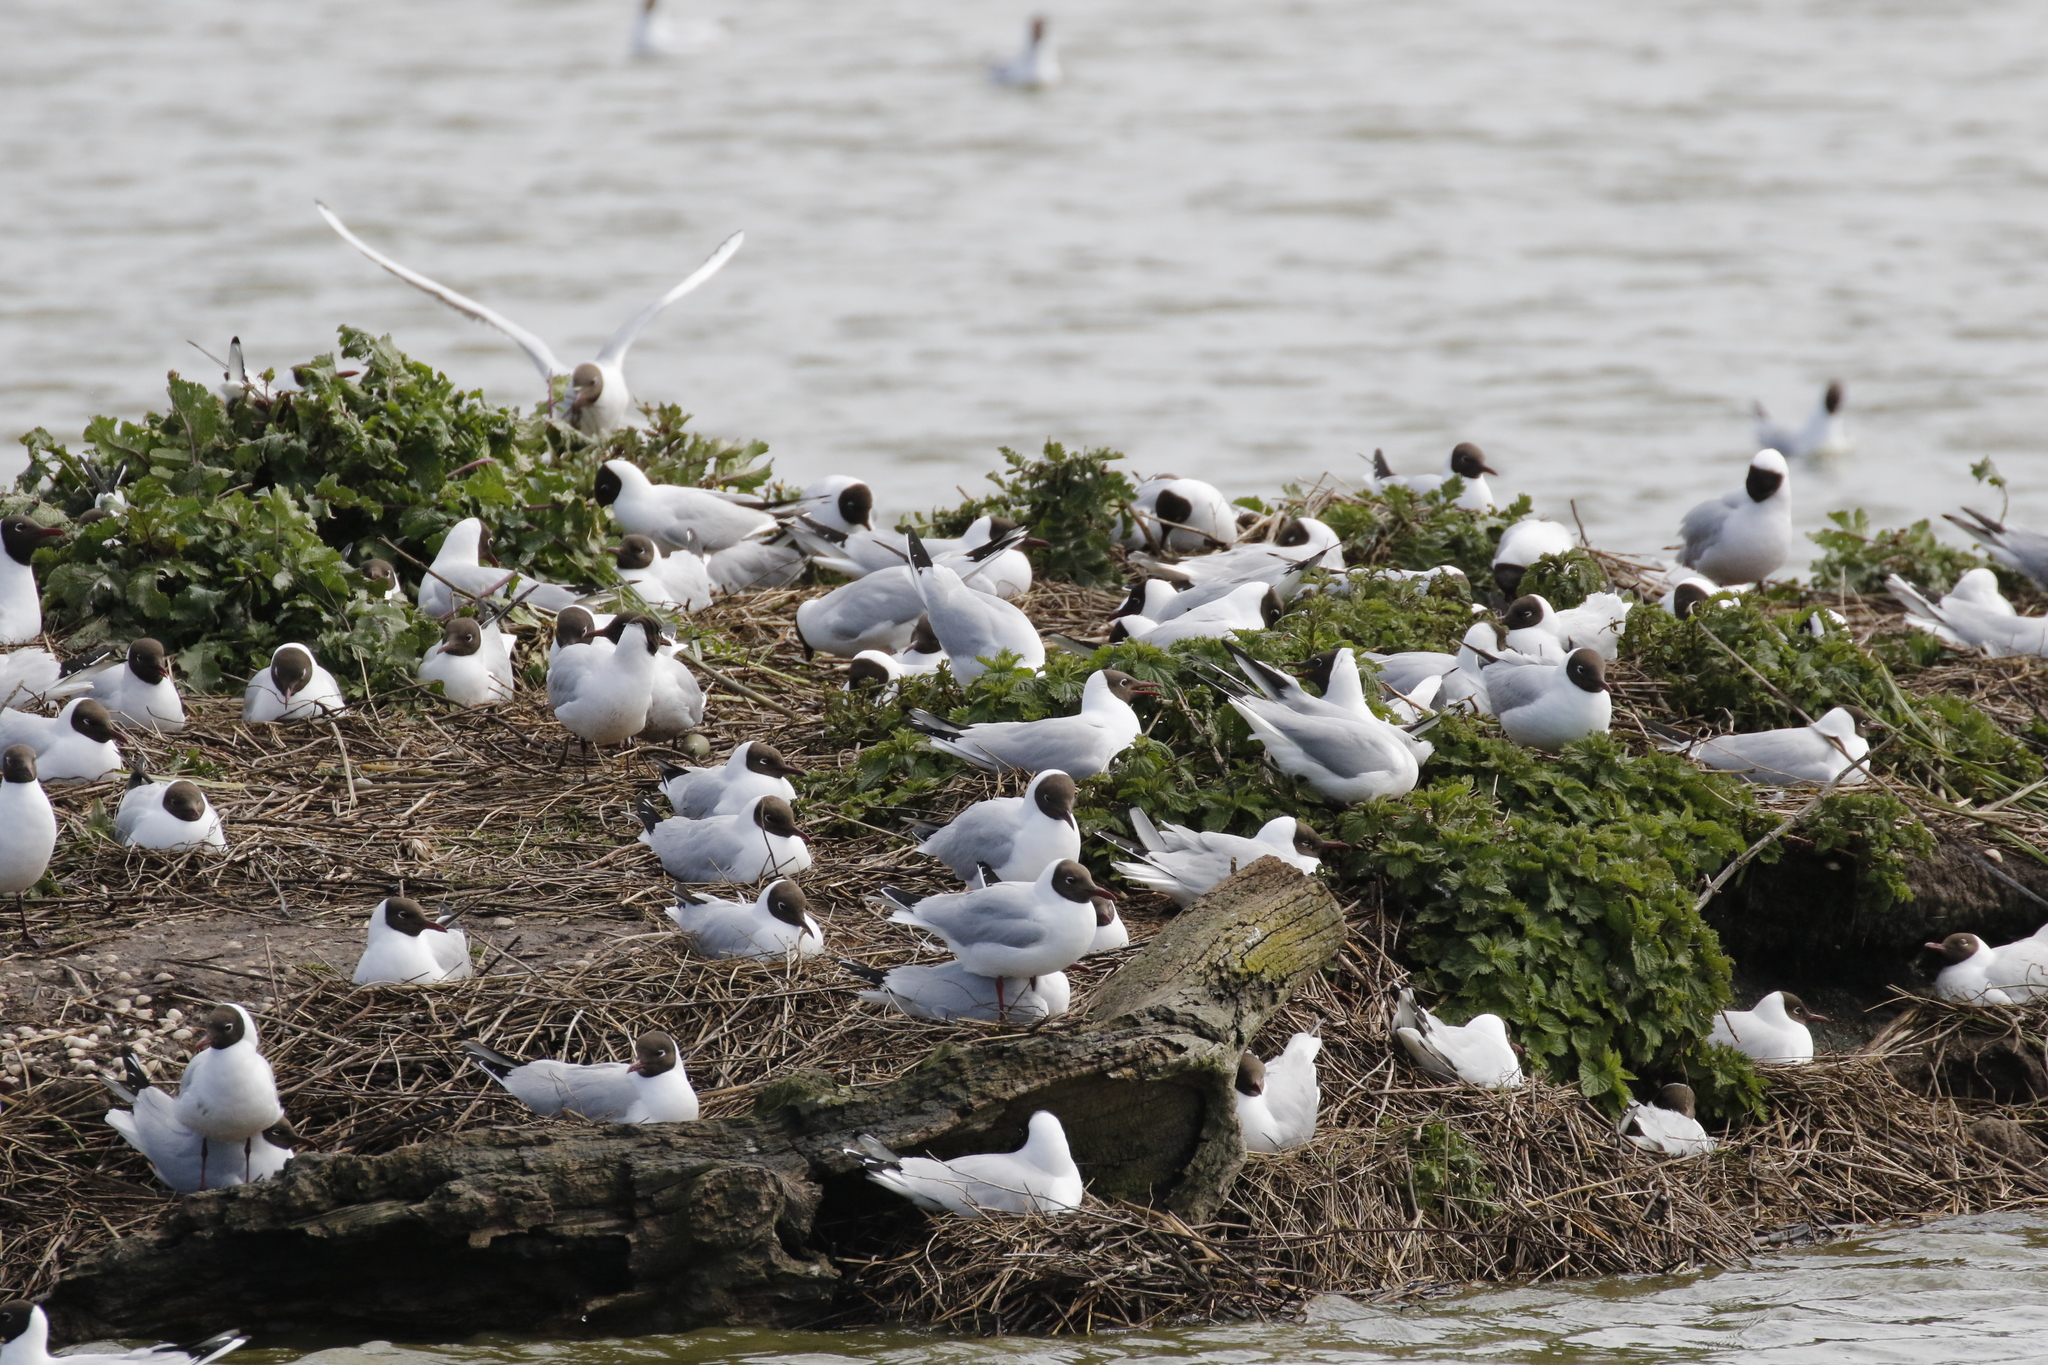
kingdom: Animalia
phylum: Chordata
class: Aves
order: Charadriiformes
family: Laridae
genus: Chroicocephalus
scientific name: Chroicocephalus ridibundus
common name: Black-headed gull
